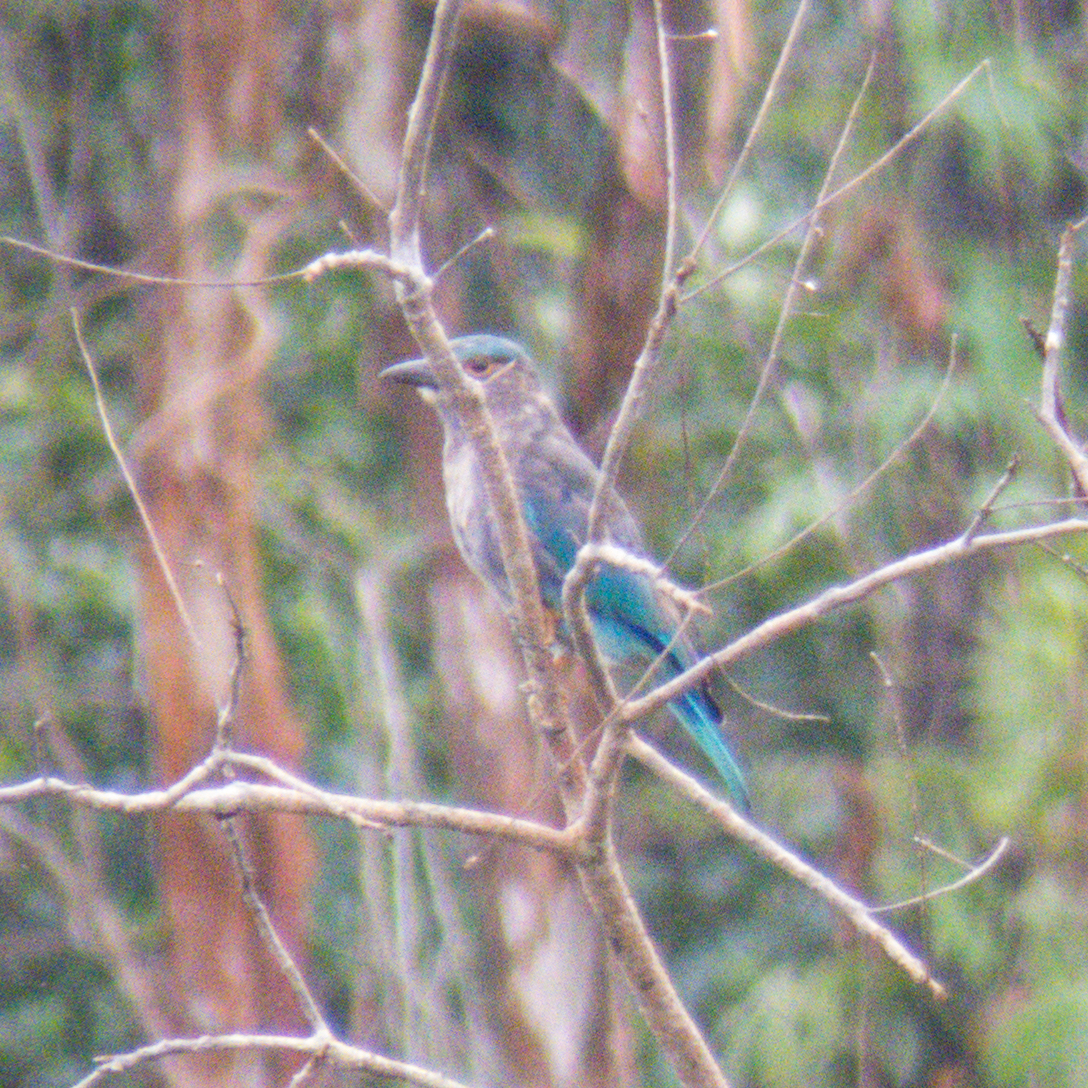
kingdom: Animalia
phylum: Chordata
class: Aves
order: Coraciiformes
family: Coraciidae
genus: Coracias
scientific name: Coracias affinis
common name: Indochinese roller
